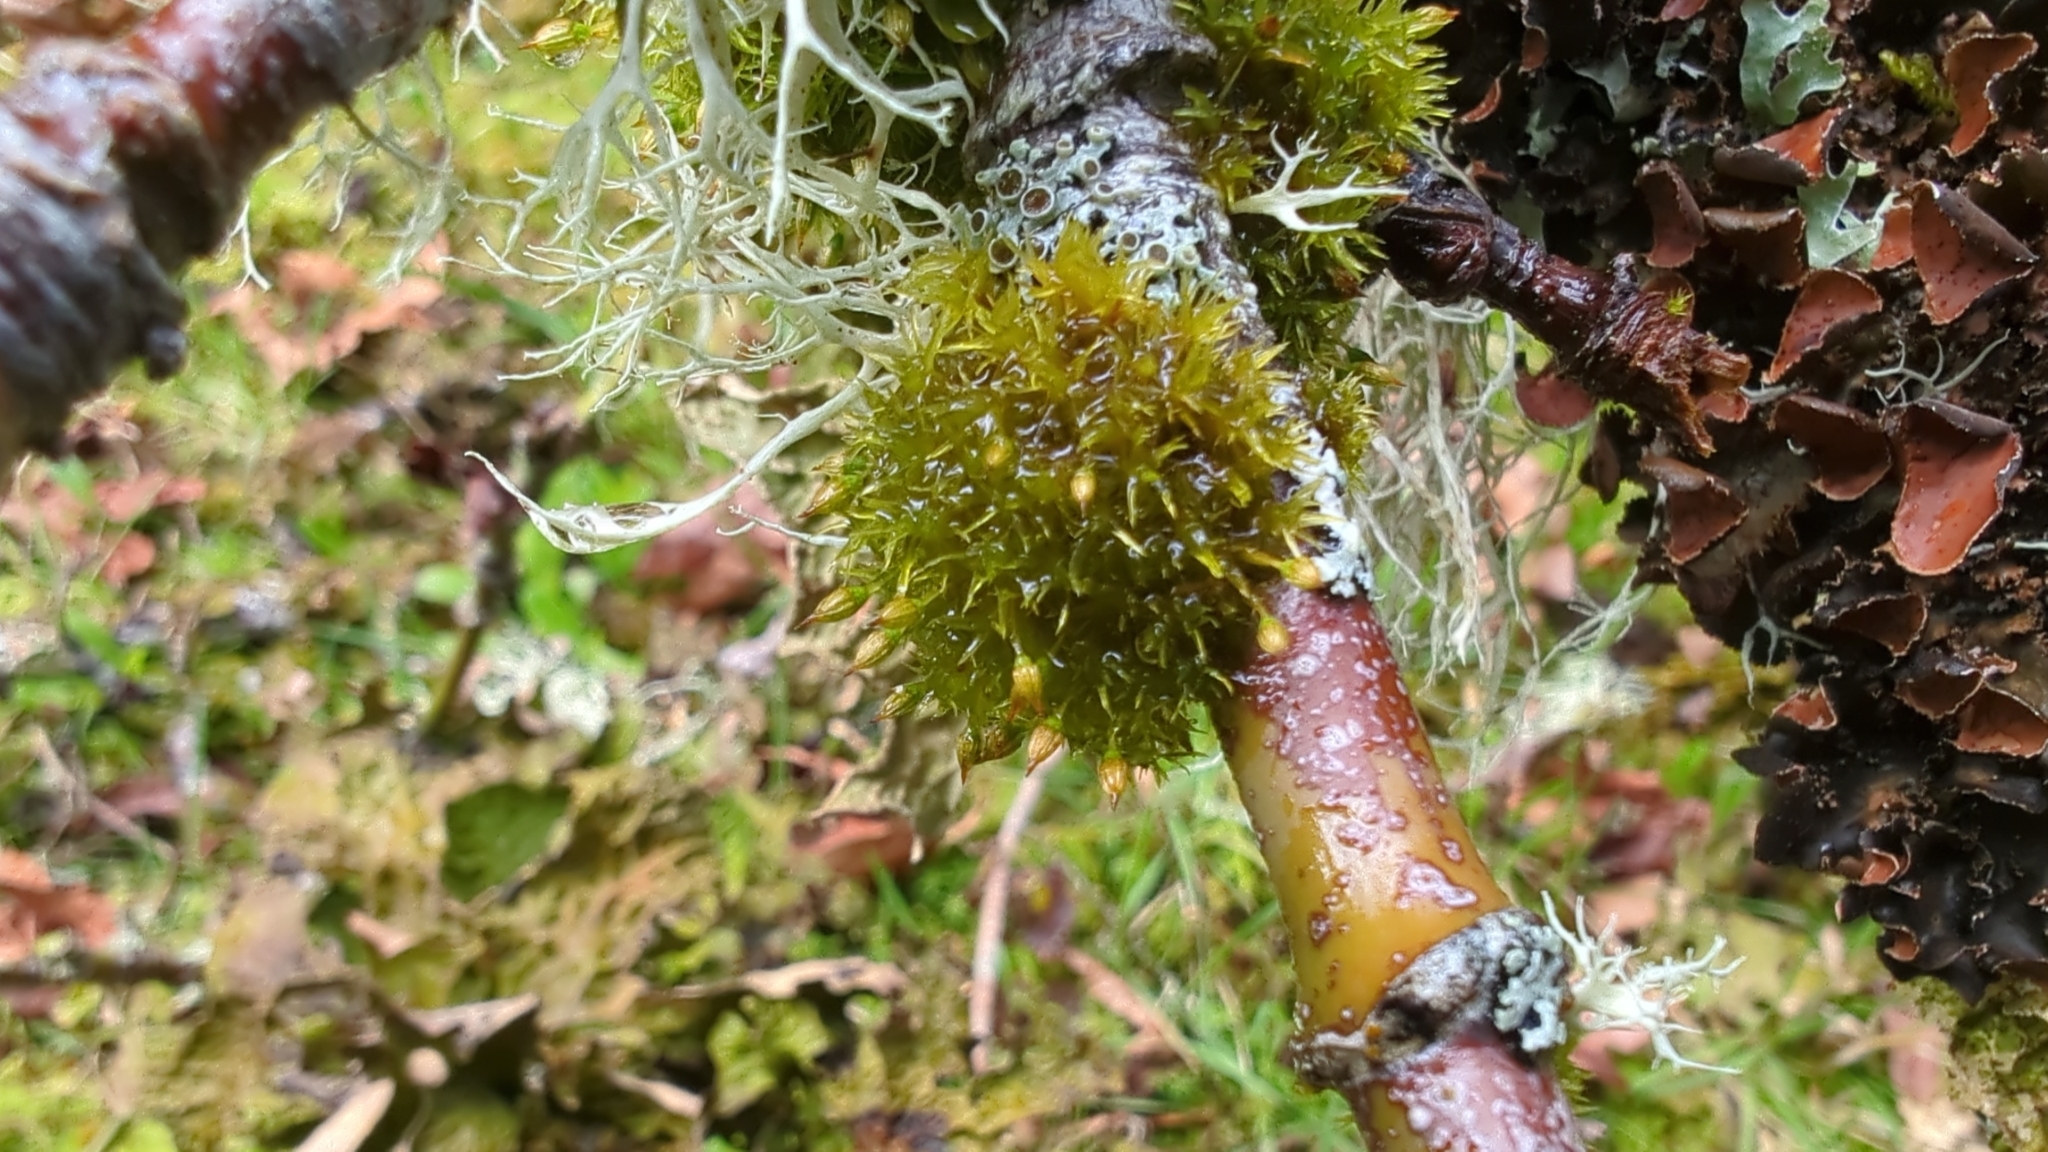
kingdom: Plantae
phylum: Bryophyta
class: Bryopsida
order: Orthotrichales
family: Orthotrichaceae
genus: Orthotrichum
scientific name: Orthotrichum pulchellum
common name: Elegant bristle-moss
